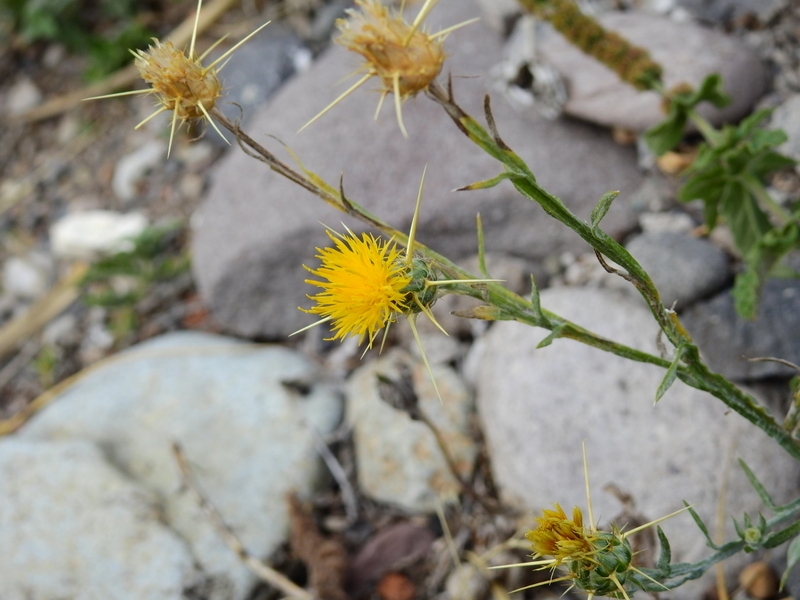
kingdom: Plantae
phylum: Tracheophyta
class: Magnoliopsida
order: Asterales
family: Asteraceae
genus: Centaurea
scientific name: Centaurea solstitialis
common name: Yellow star-thistle
